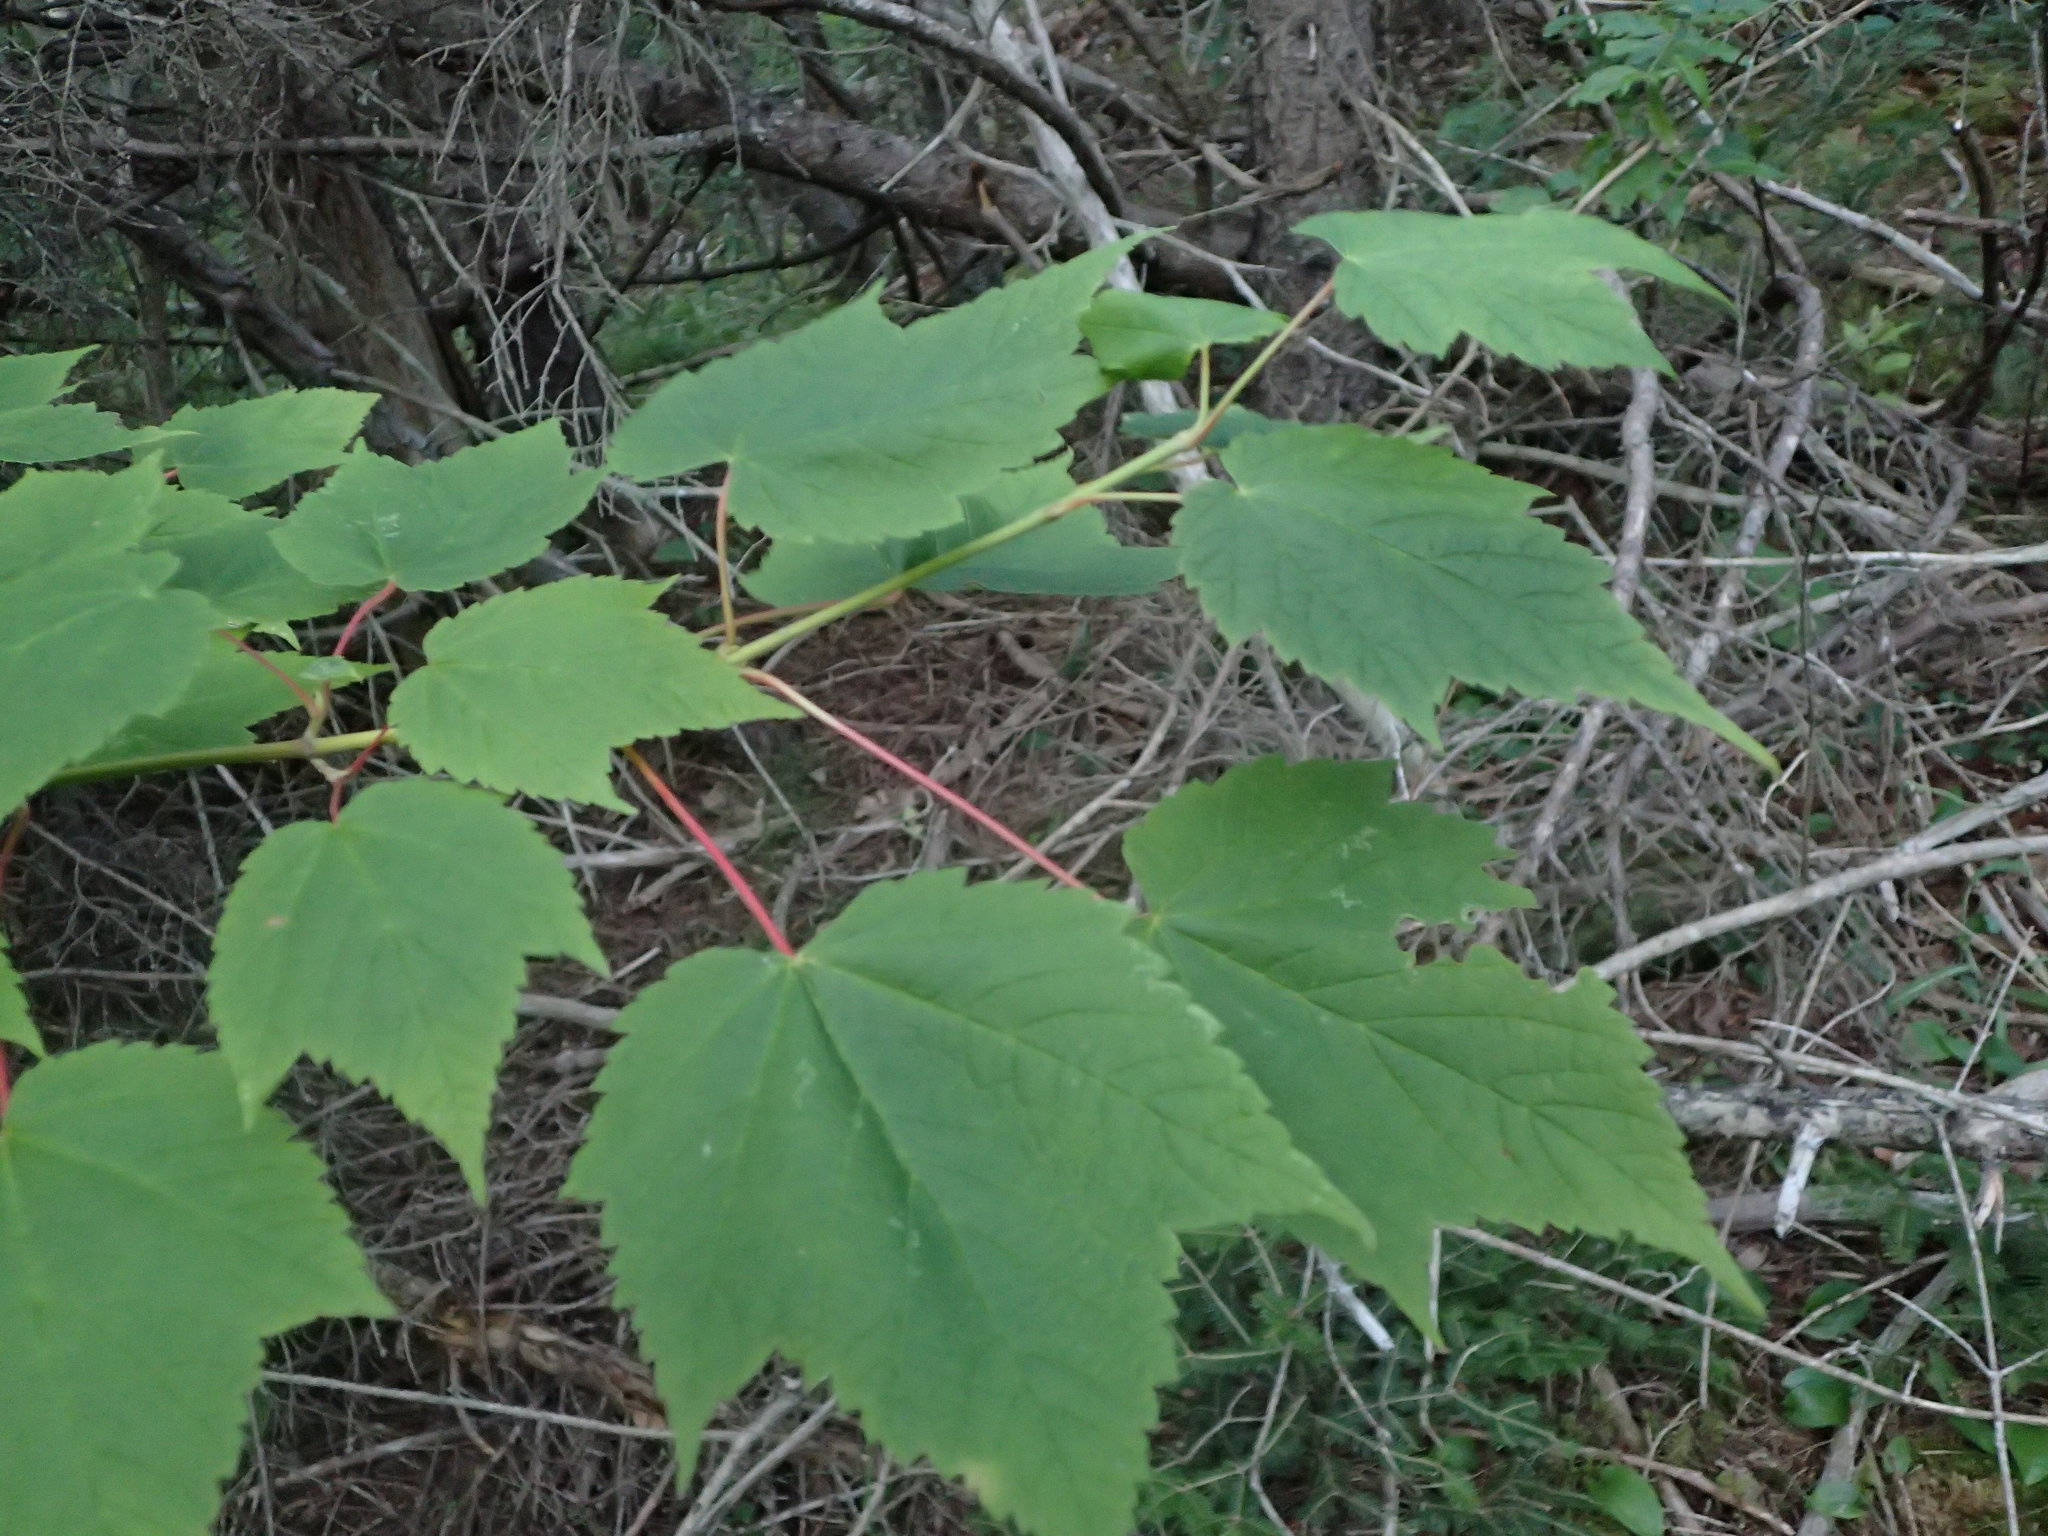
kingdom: Plantae
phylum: Tracheophyta
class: Magnoliopsida
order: Sapindales
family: Sapindaceae
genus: Acer
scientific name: Acer spicatum
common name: Mountain maple
